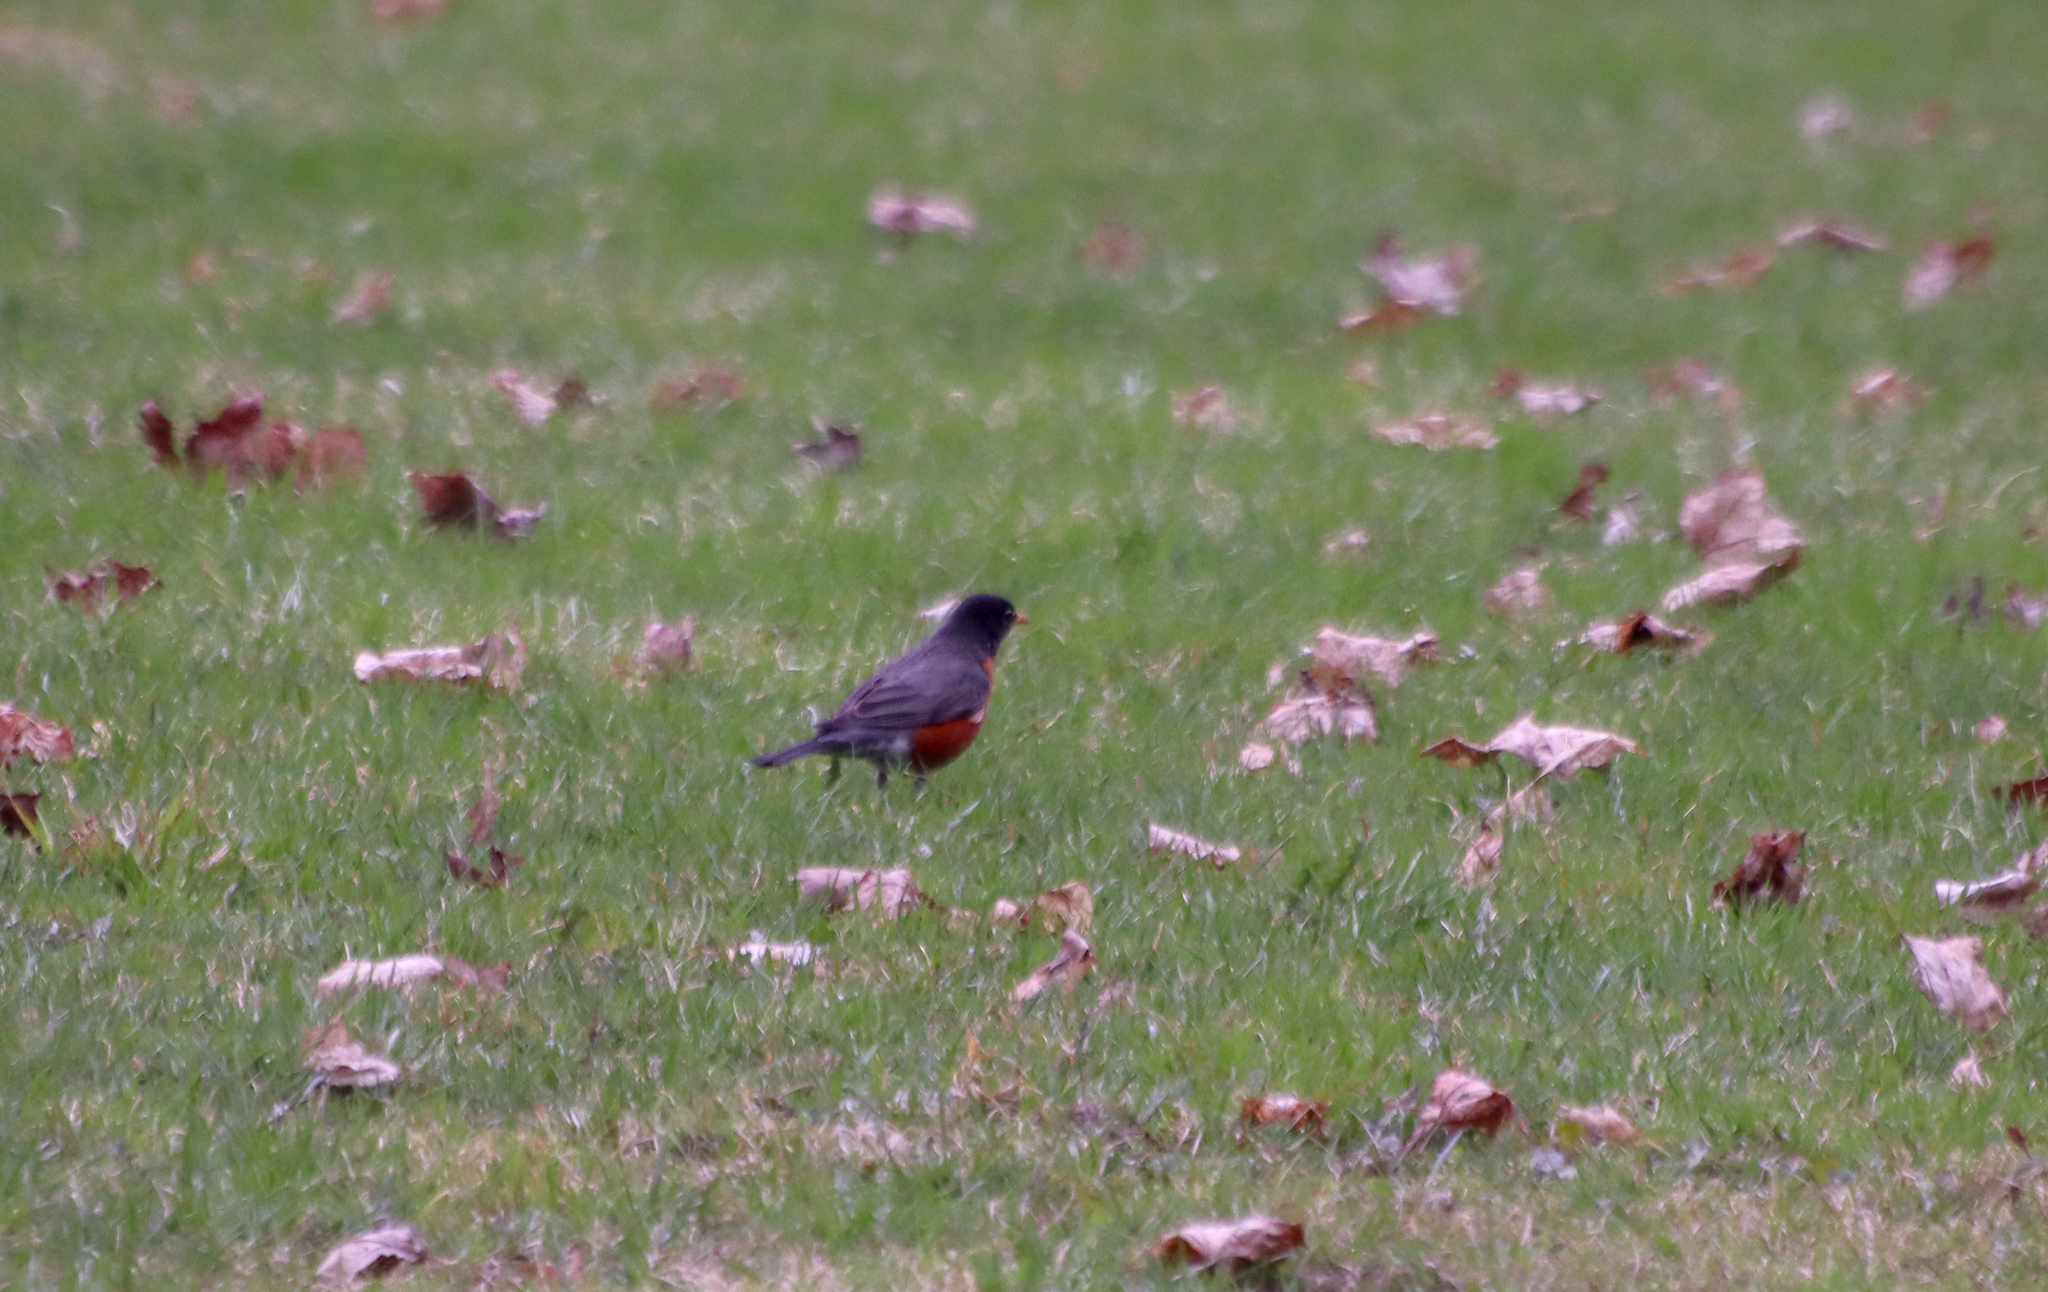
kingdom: Animalia
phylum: Chordata
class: Aves
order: Passeriformes
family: Turdidae
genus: Turdus
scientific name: Turdus migratorius
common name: American robin
